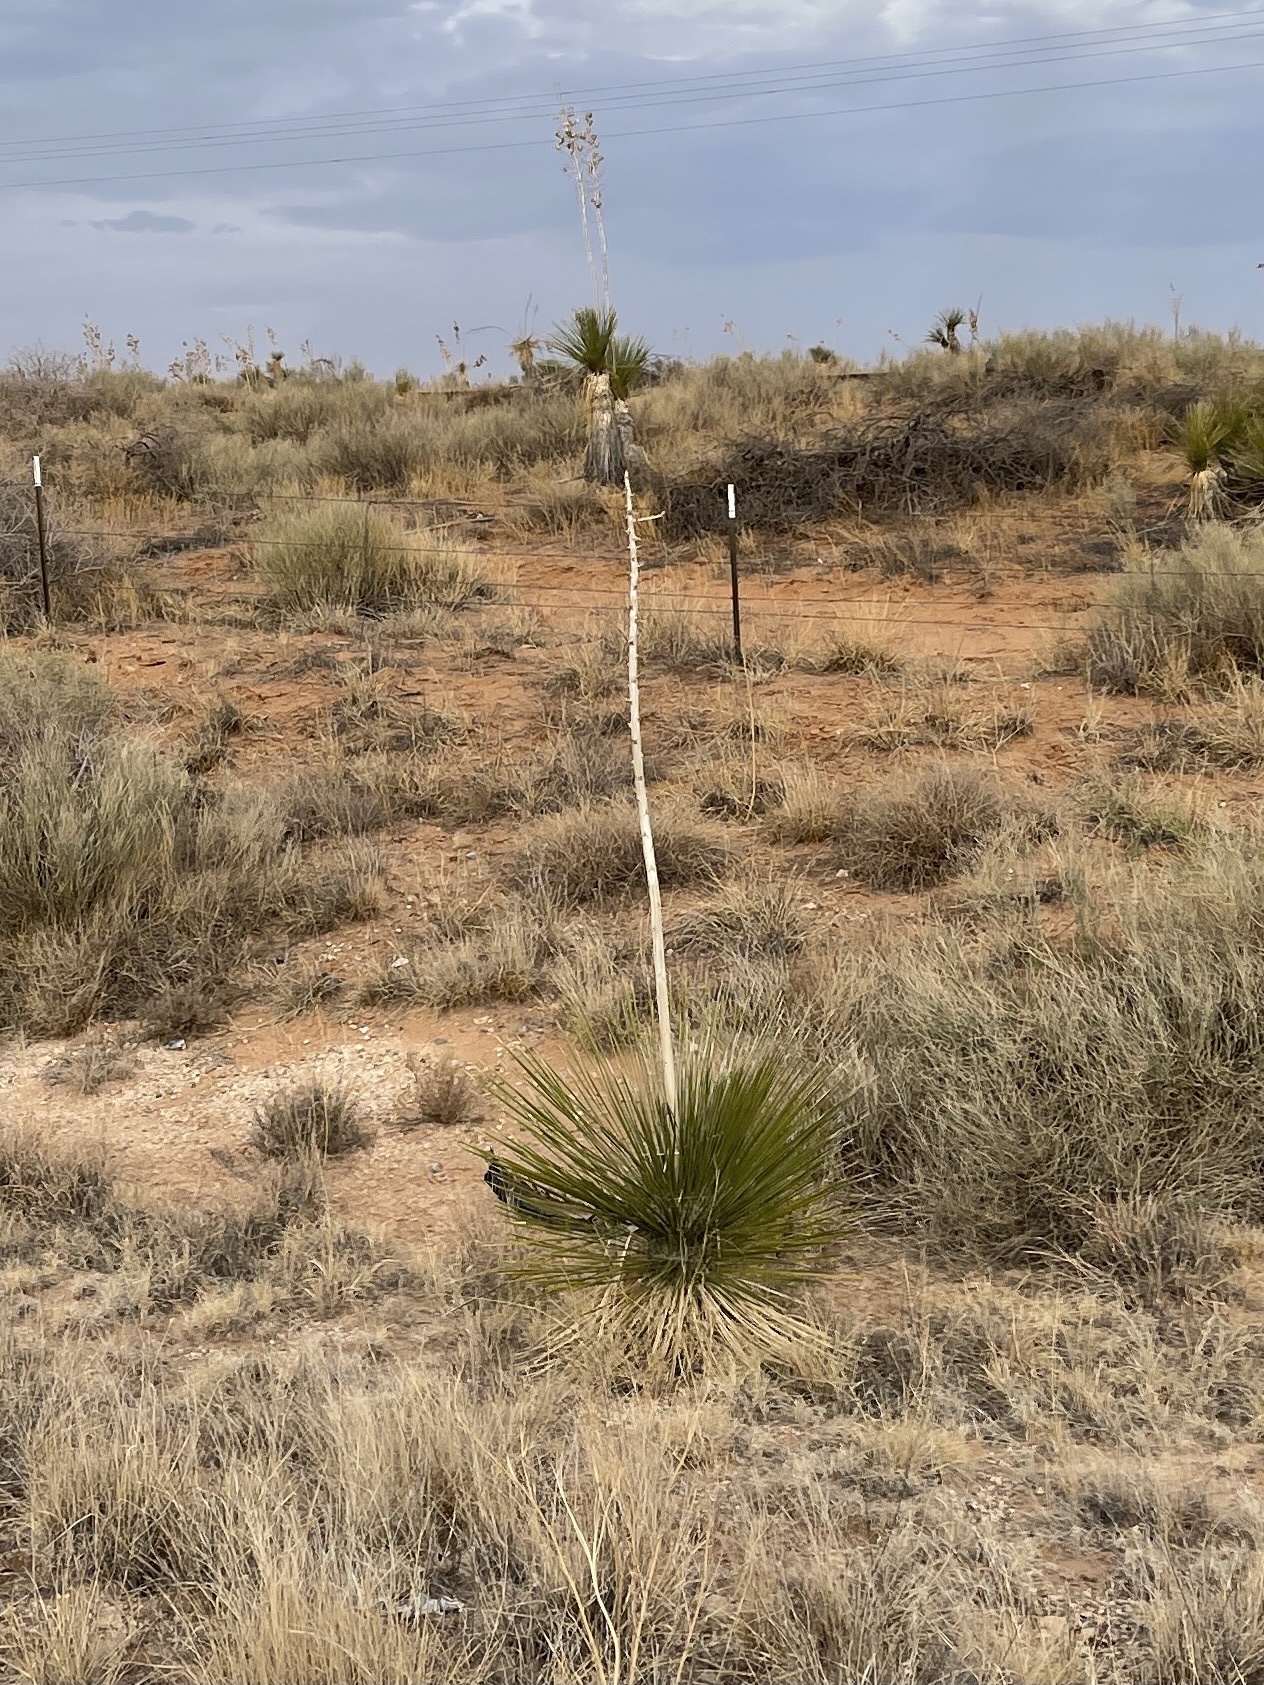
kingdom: Plantae
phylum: Tracheophyta
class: Liliopsida
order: Asparagales
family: Asparagaceae
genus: Yucca
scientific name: Yucca elata
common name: Palmella
